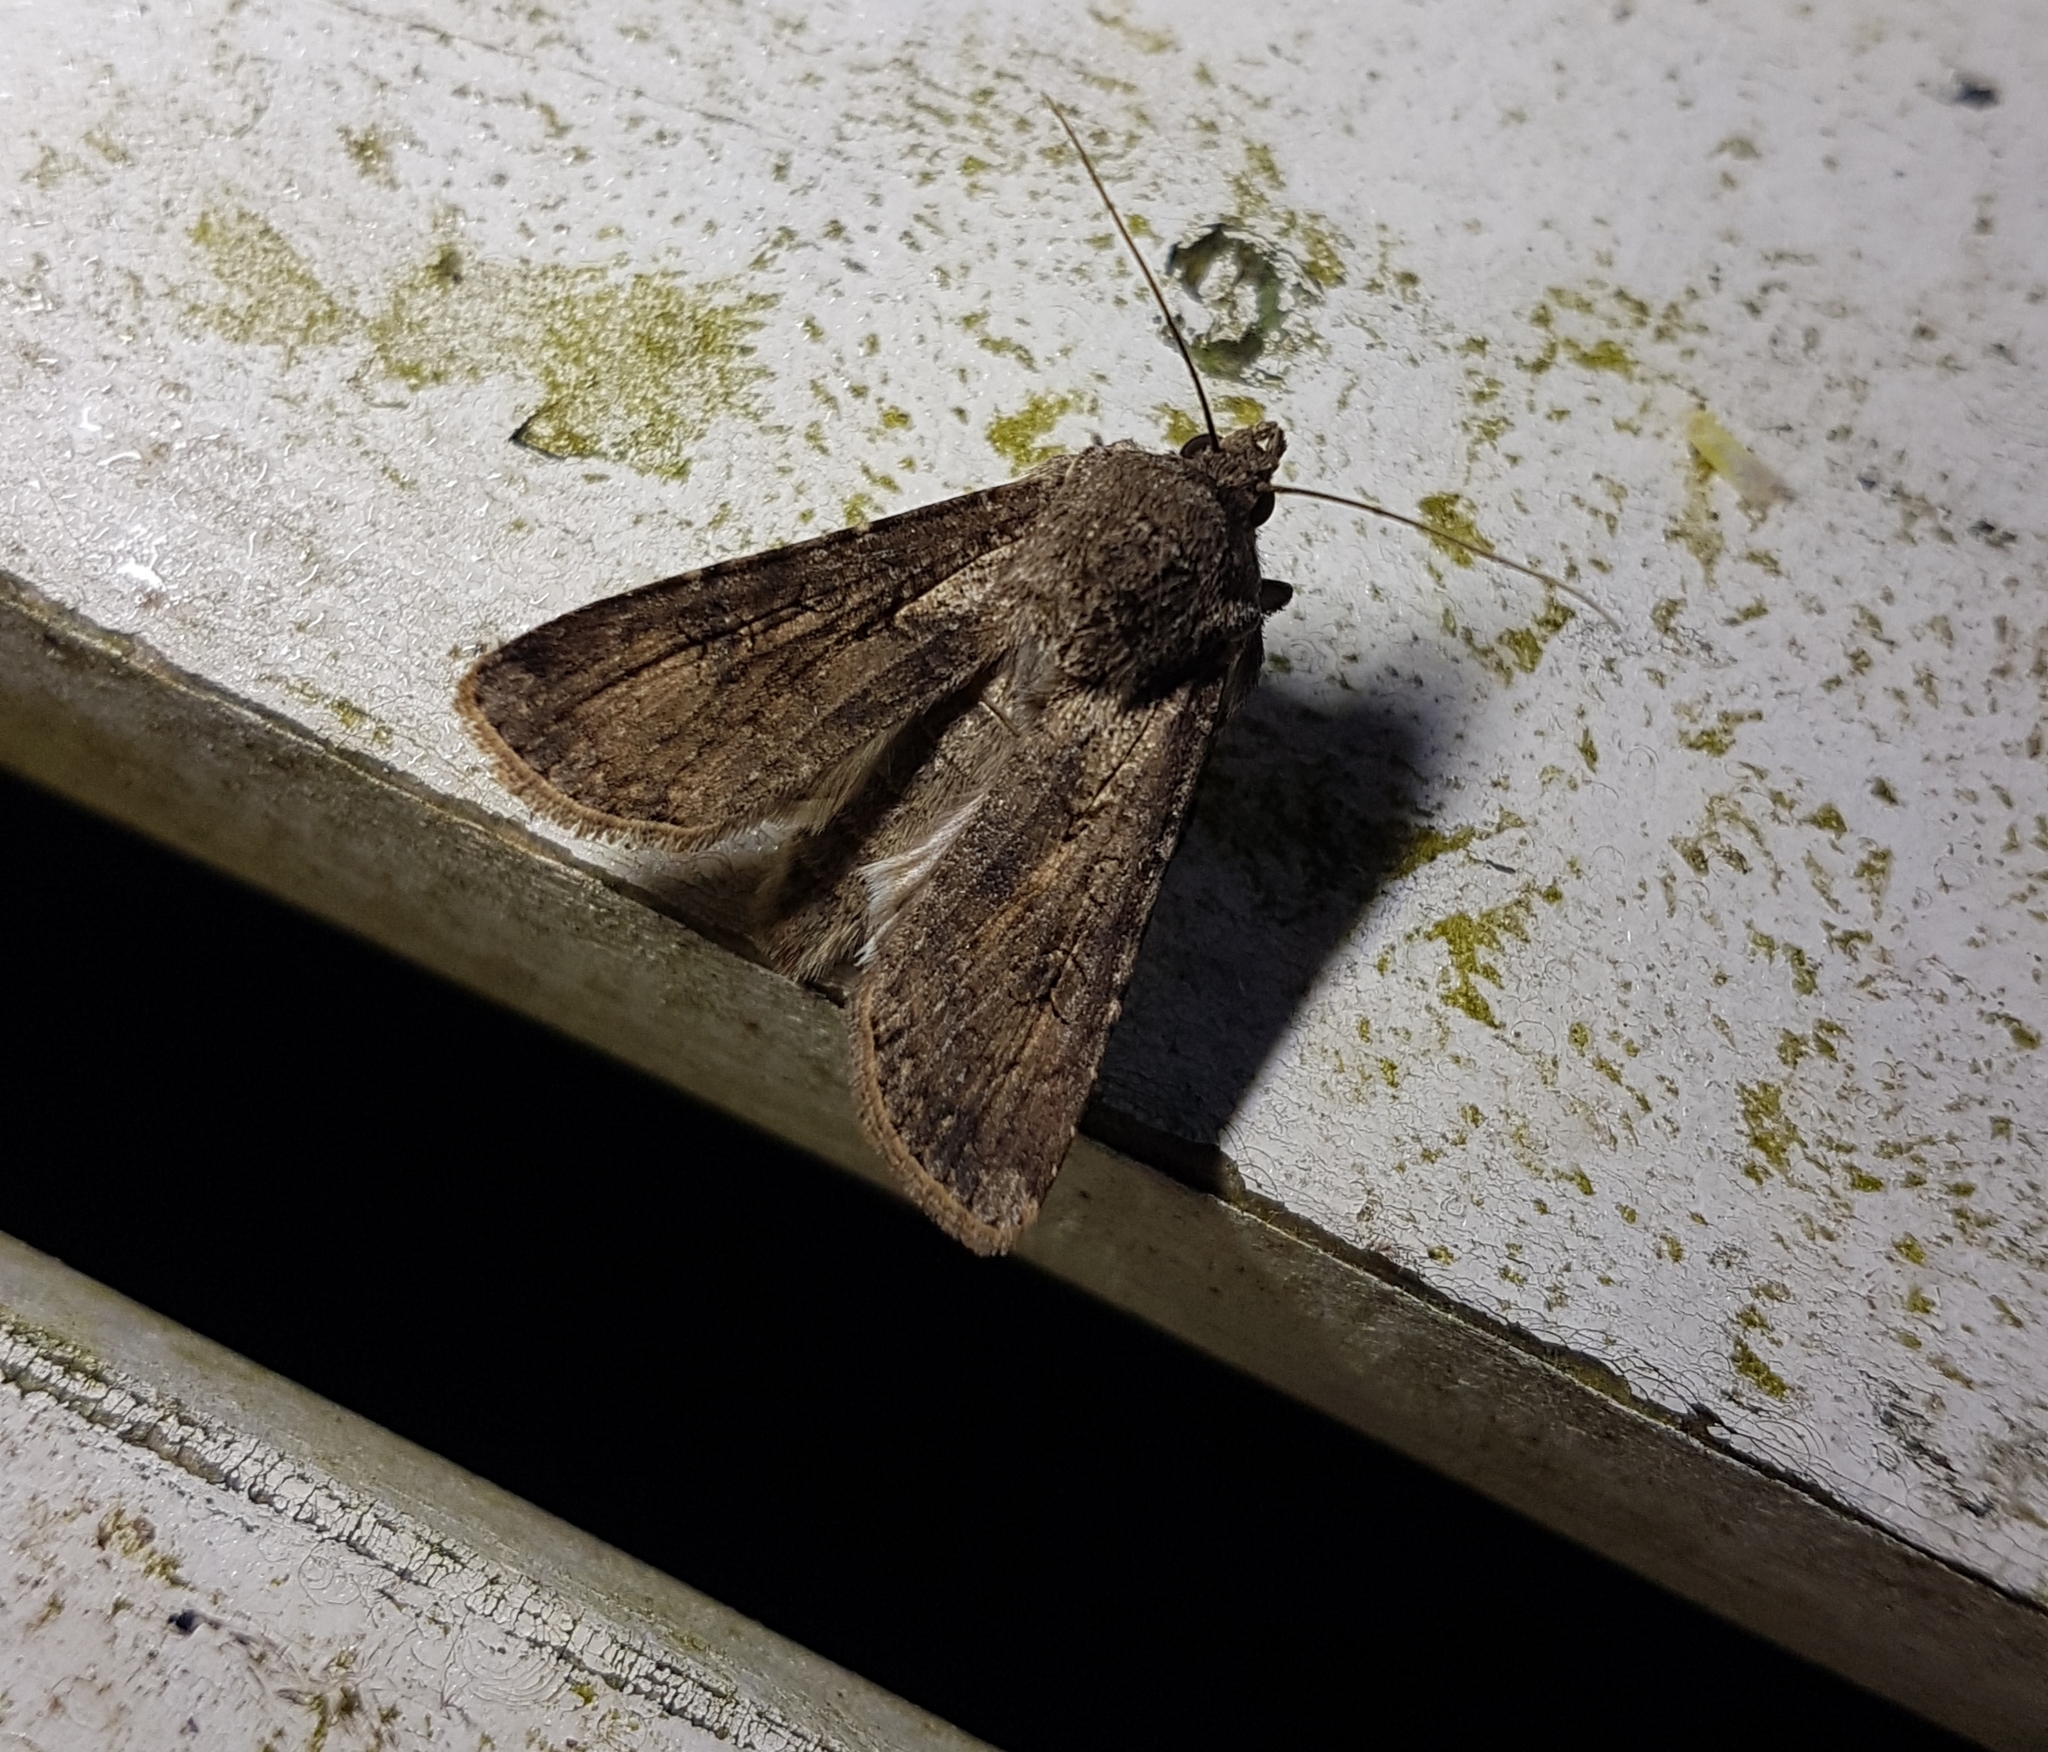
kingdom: Animalia
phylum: Arthropoda
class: Insecta
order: Lepidoptera
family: Noctuidae
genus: Agrotis
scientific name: Agrotis segetum
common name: Turnip moth
